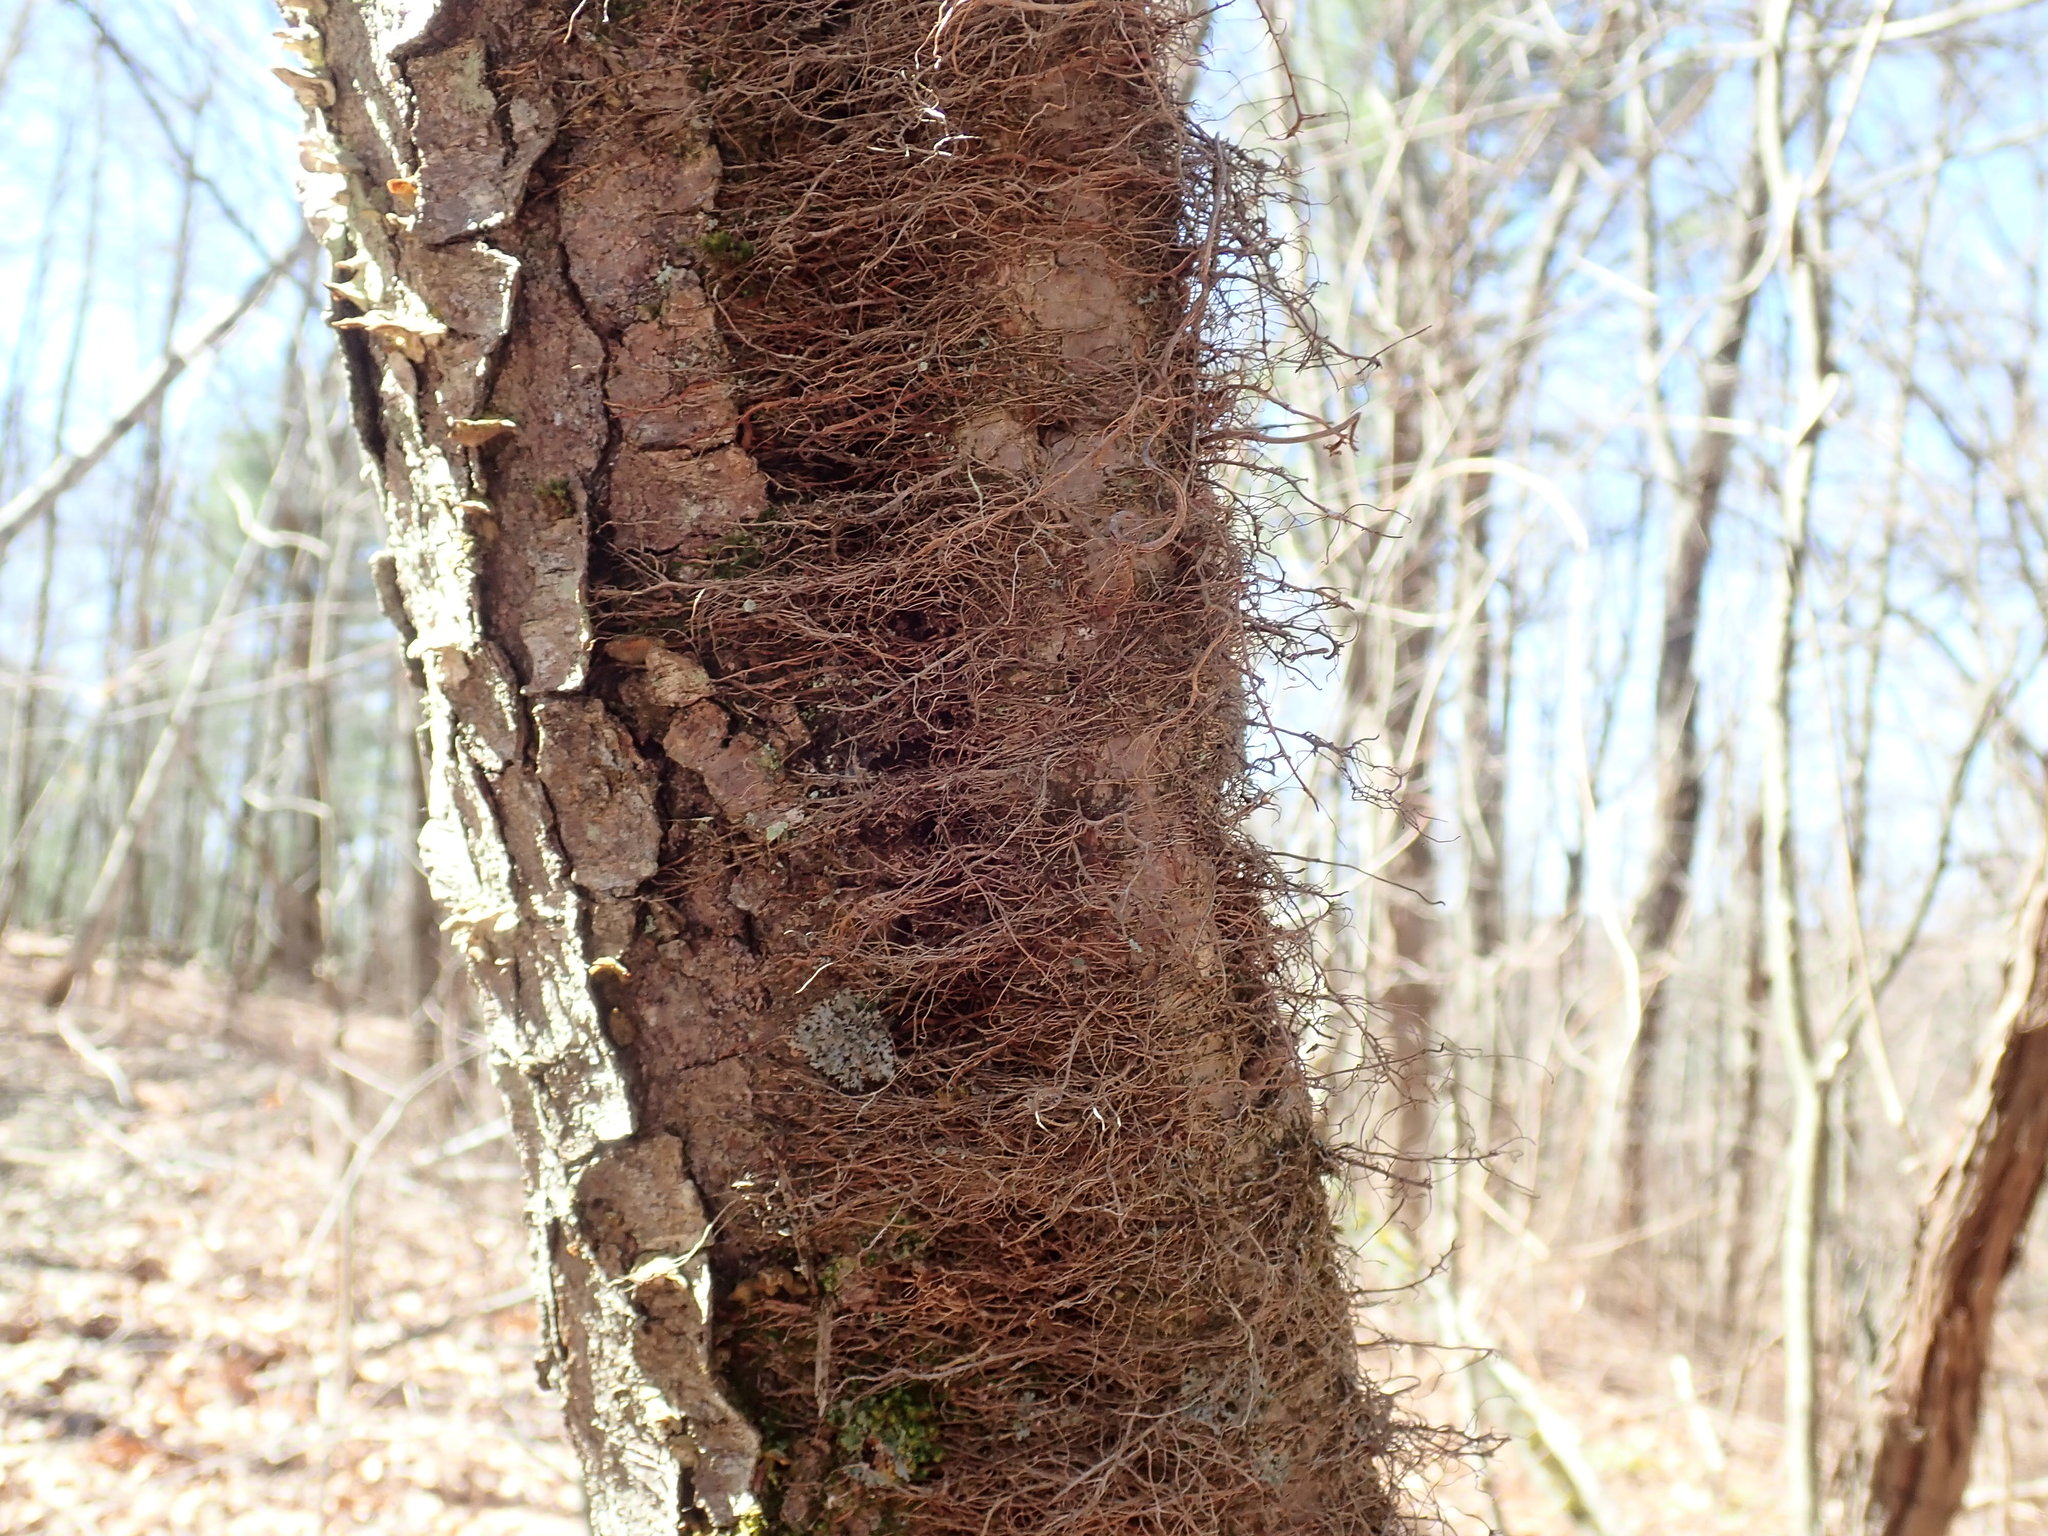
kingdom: Plantae
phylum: Tracheophyta
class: Magnoliopsida
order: Sapindales
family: Anacardiaceae
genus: Toxicodendron
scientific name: Toxicodendron radicans
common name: Poison ivy
